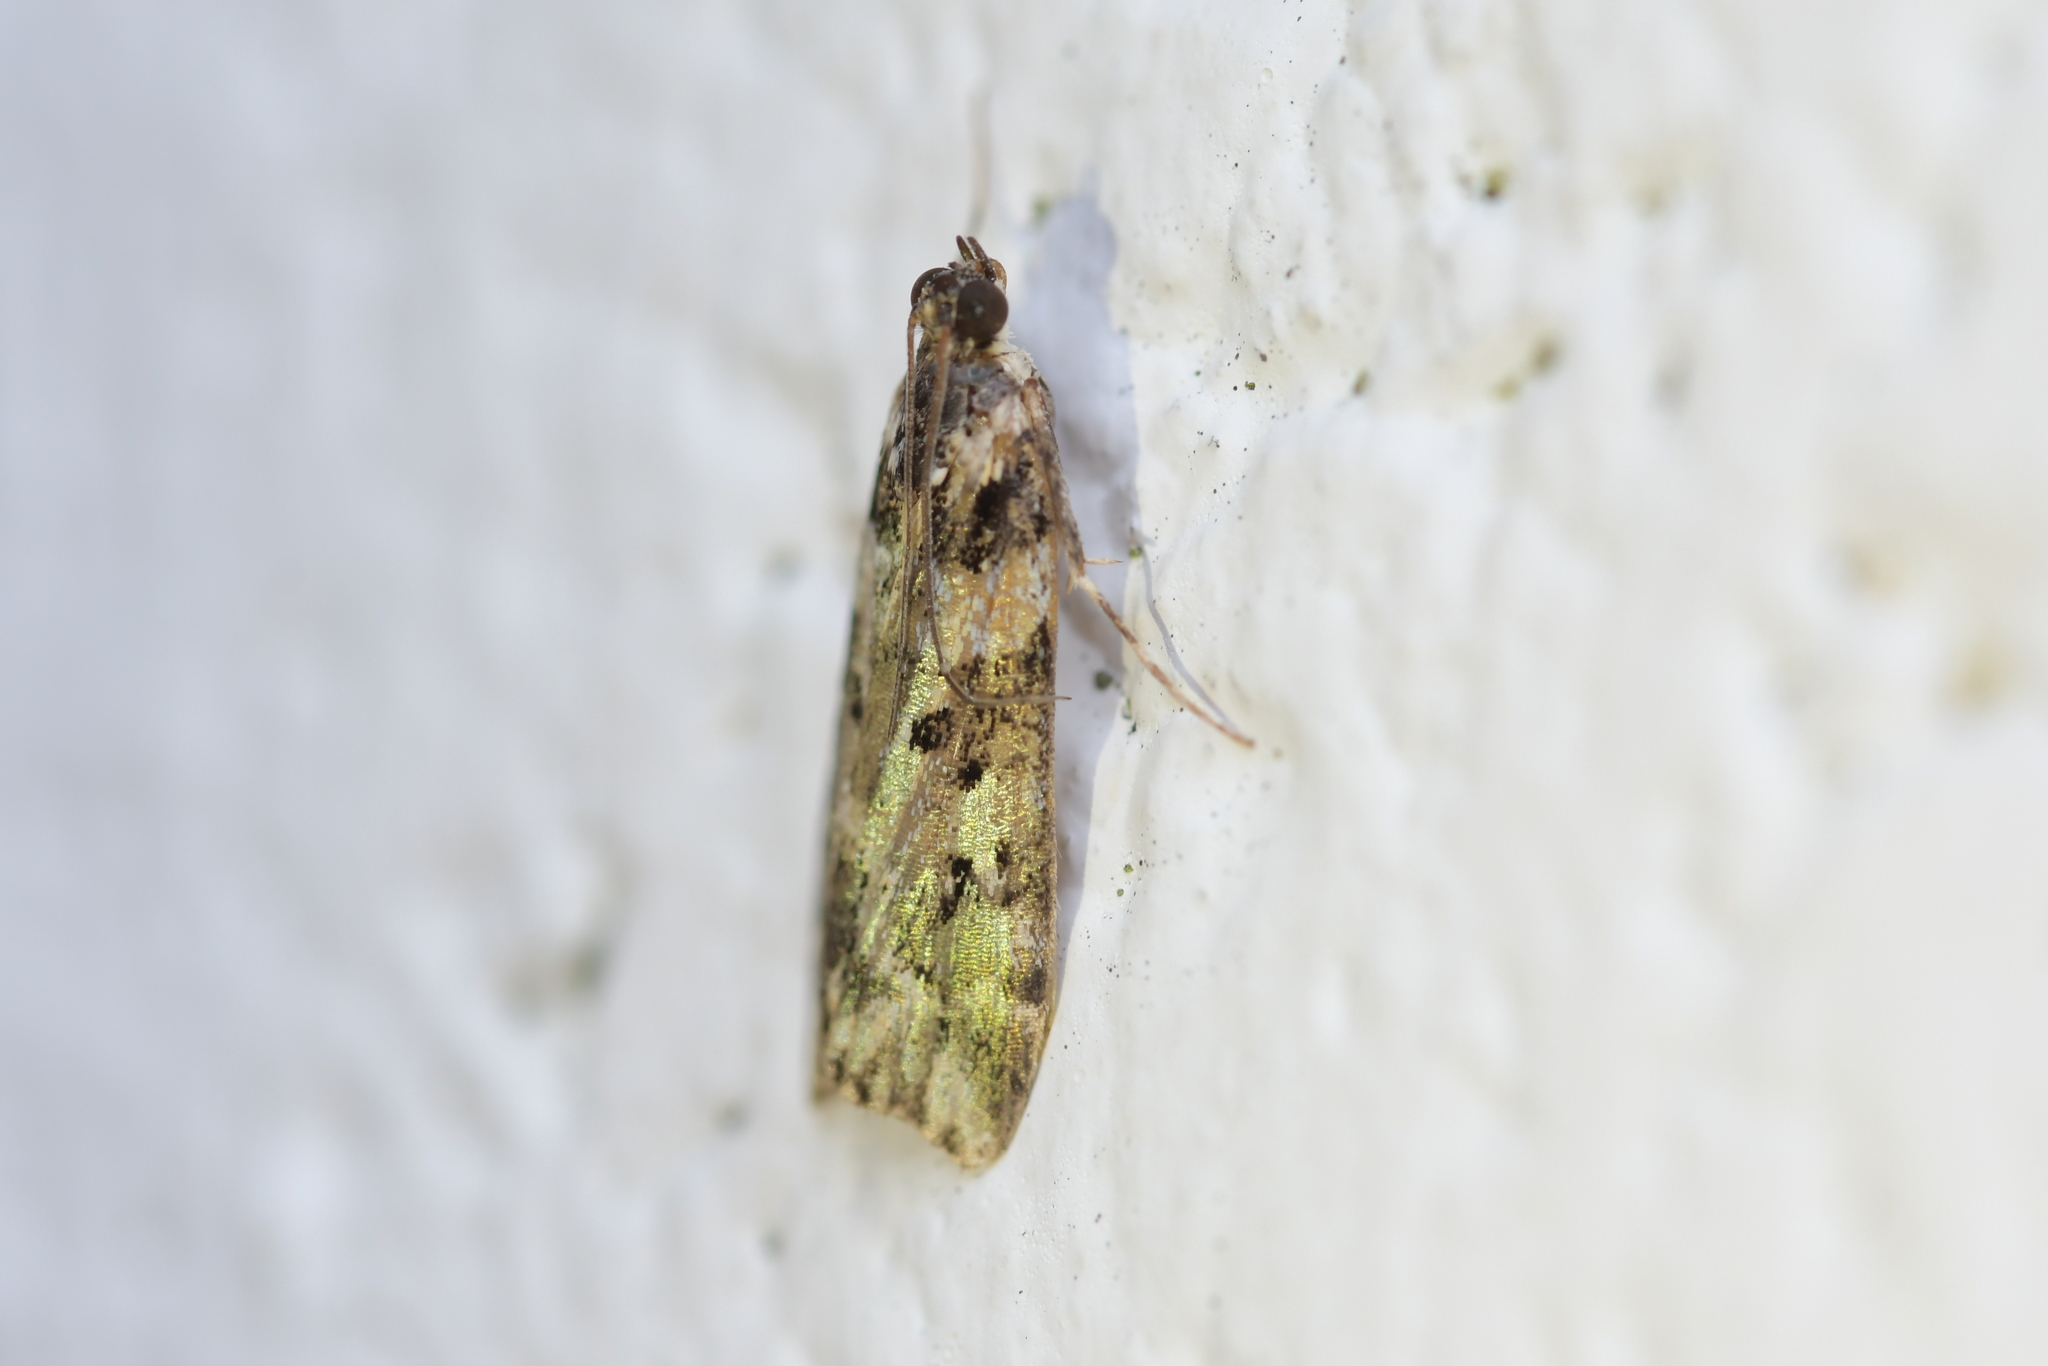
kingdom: Animalia
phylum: Arthropoda
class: Insecta
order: Lepidoptera
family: Crambidae
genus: Eudonia
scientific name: Eudonia diphtheralis
